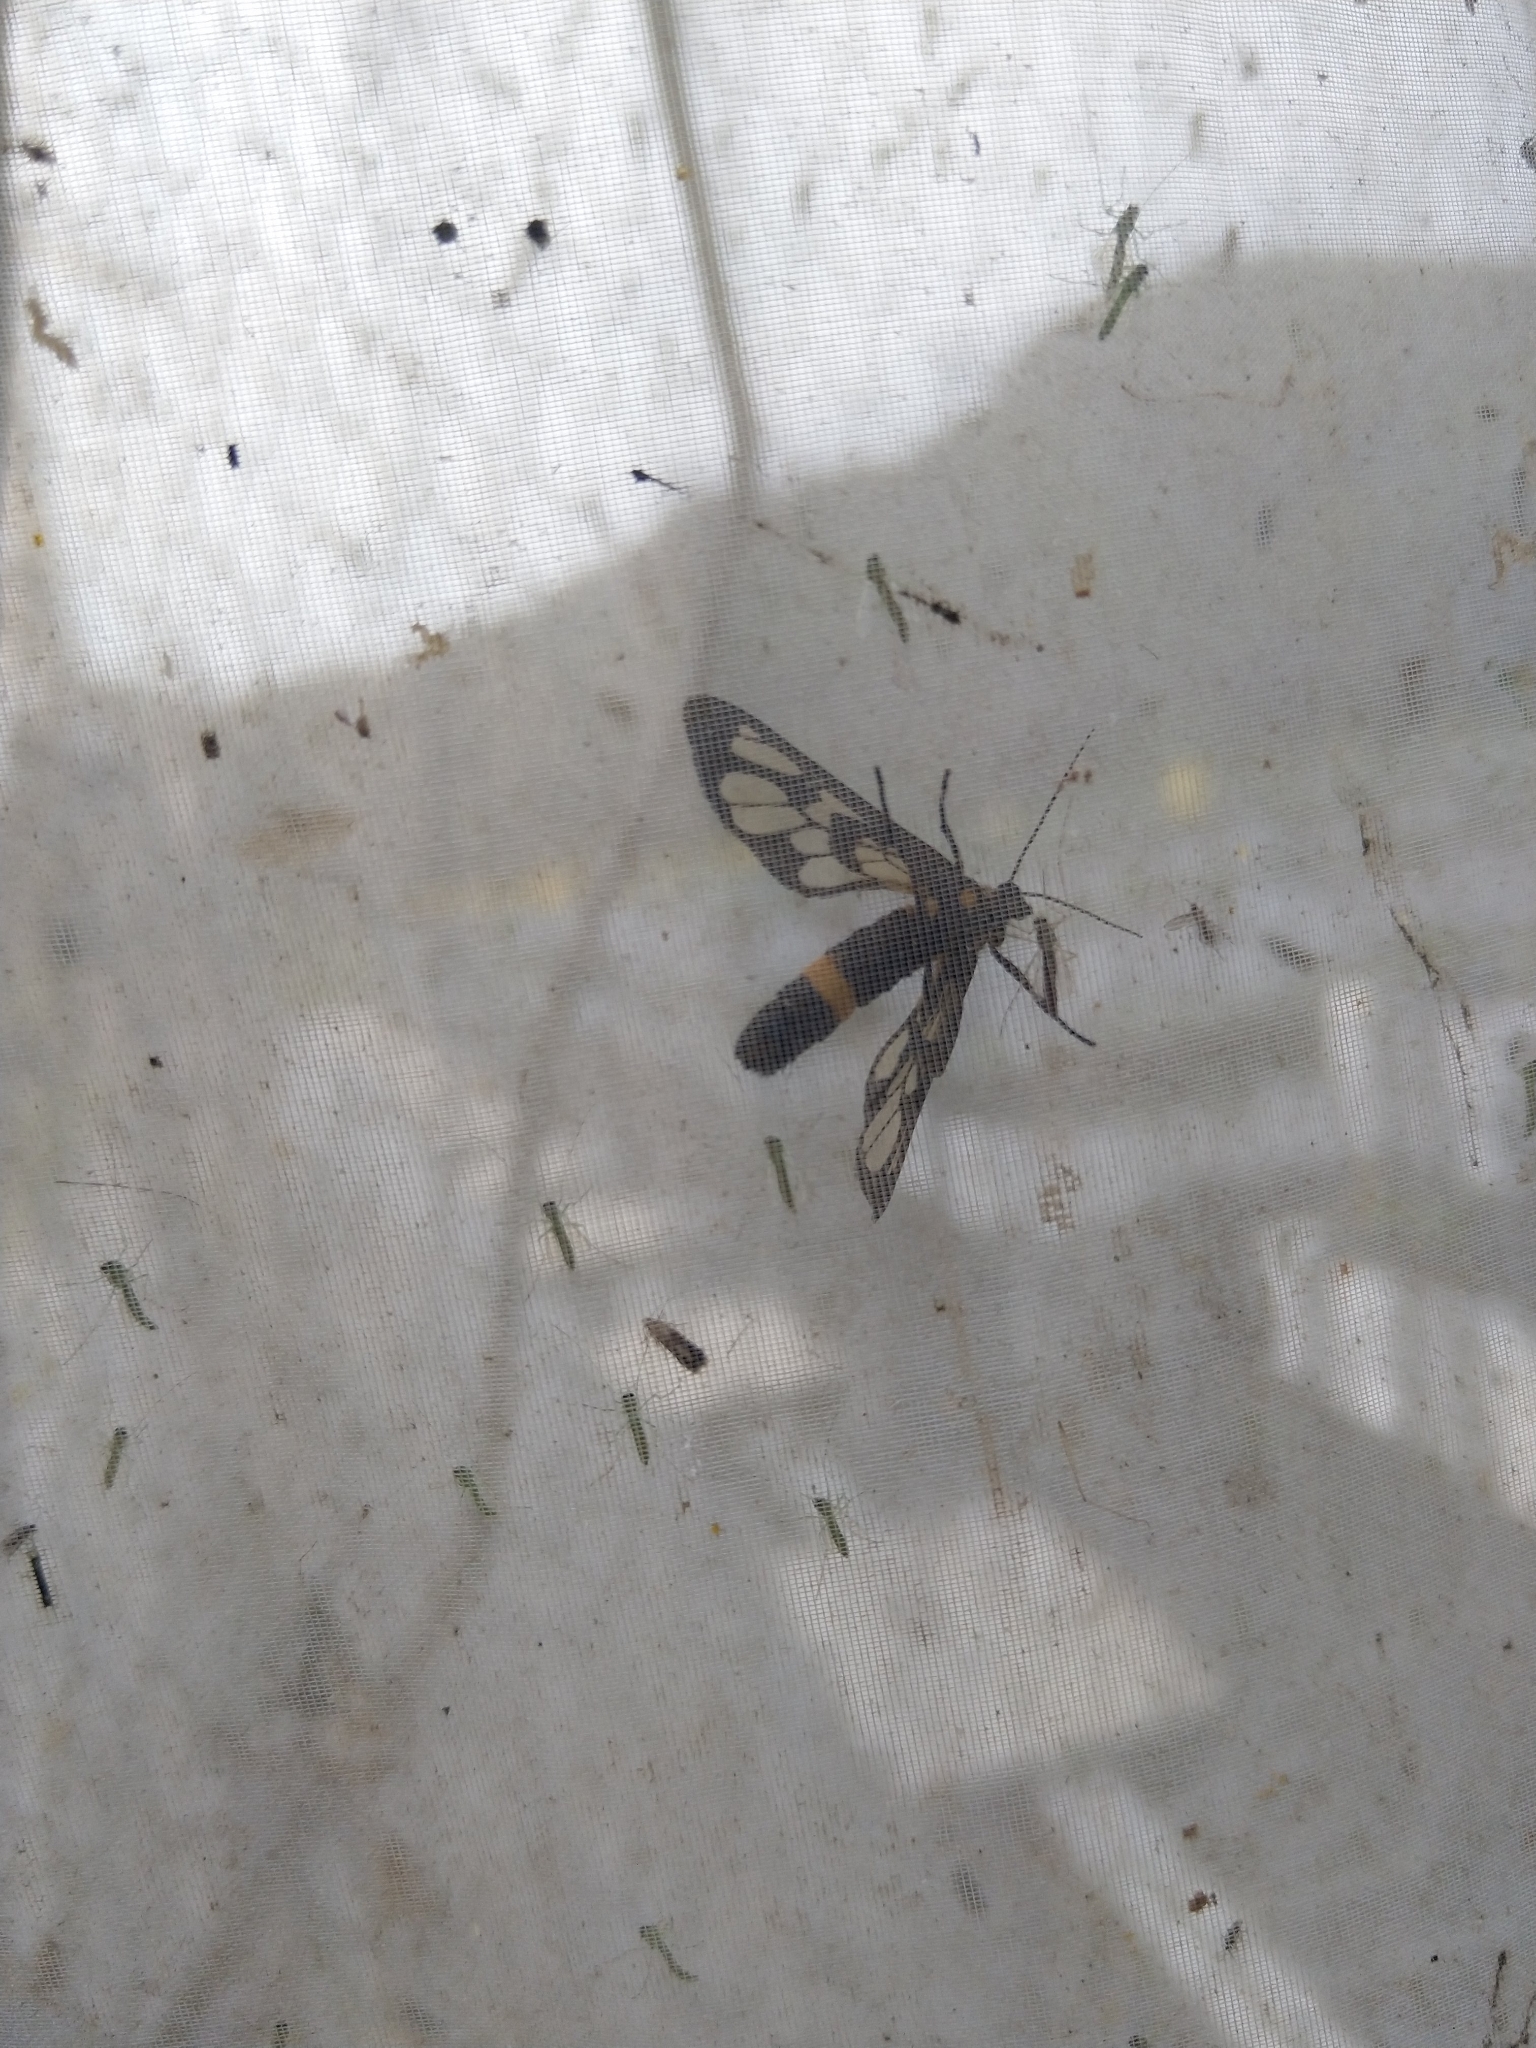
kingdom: Animalia
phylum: Arthropoda
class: Insecta
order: Lepidoptera
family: Erebidae
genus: Syntomoides
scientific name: Syntomoides imaon
